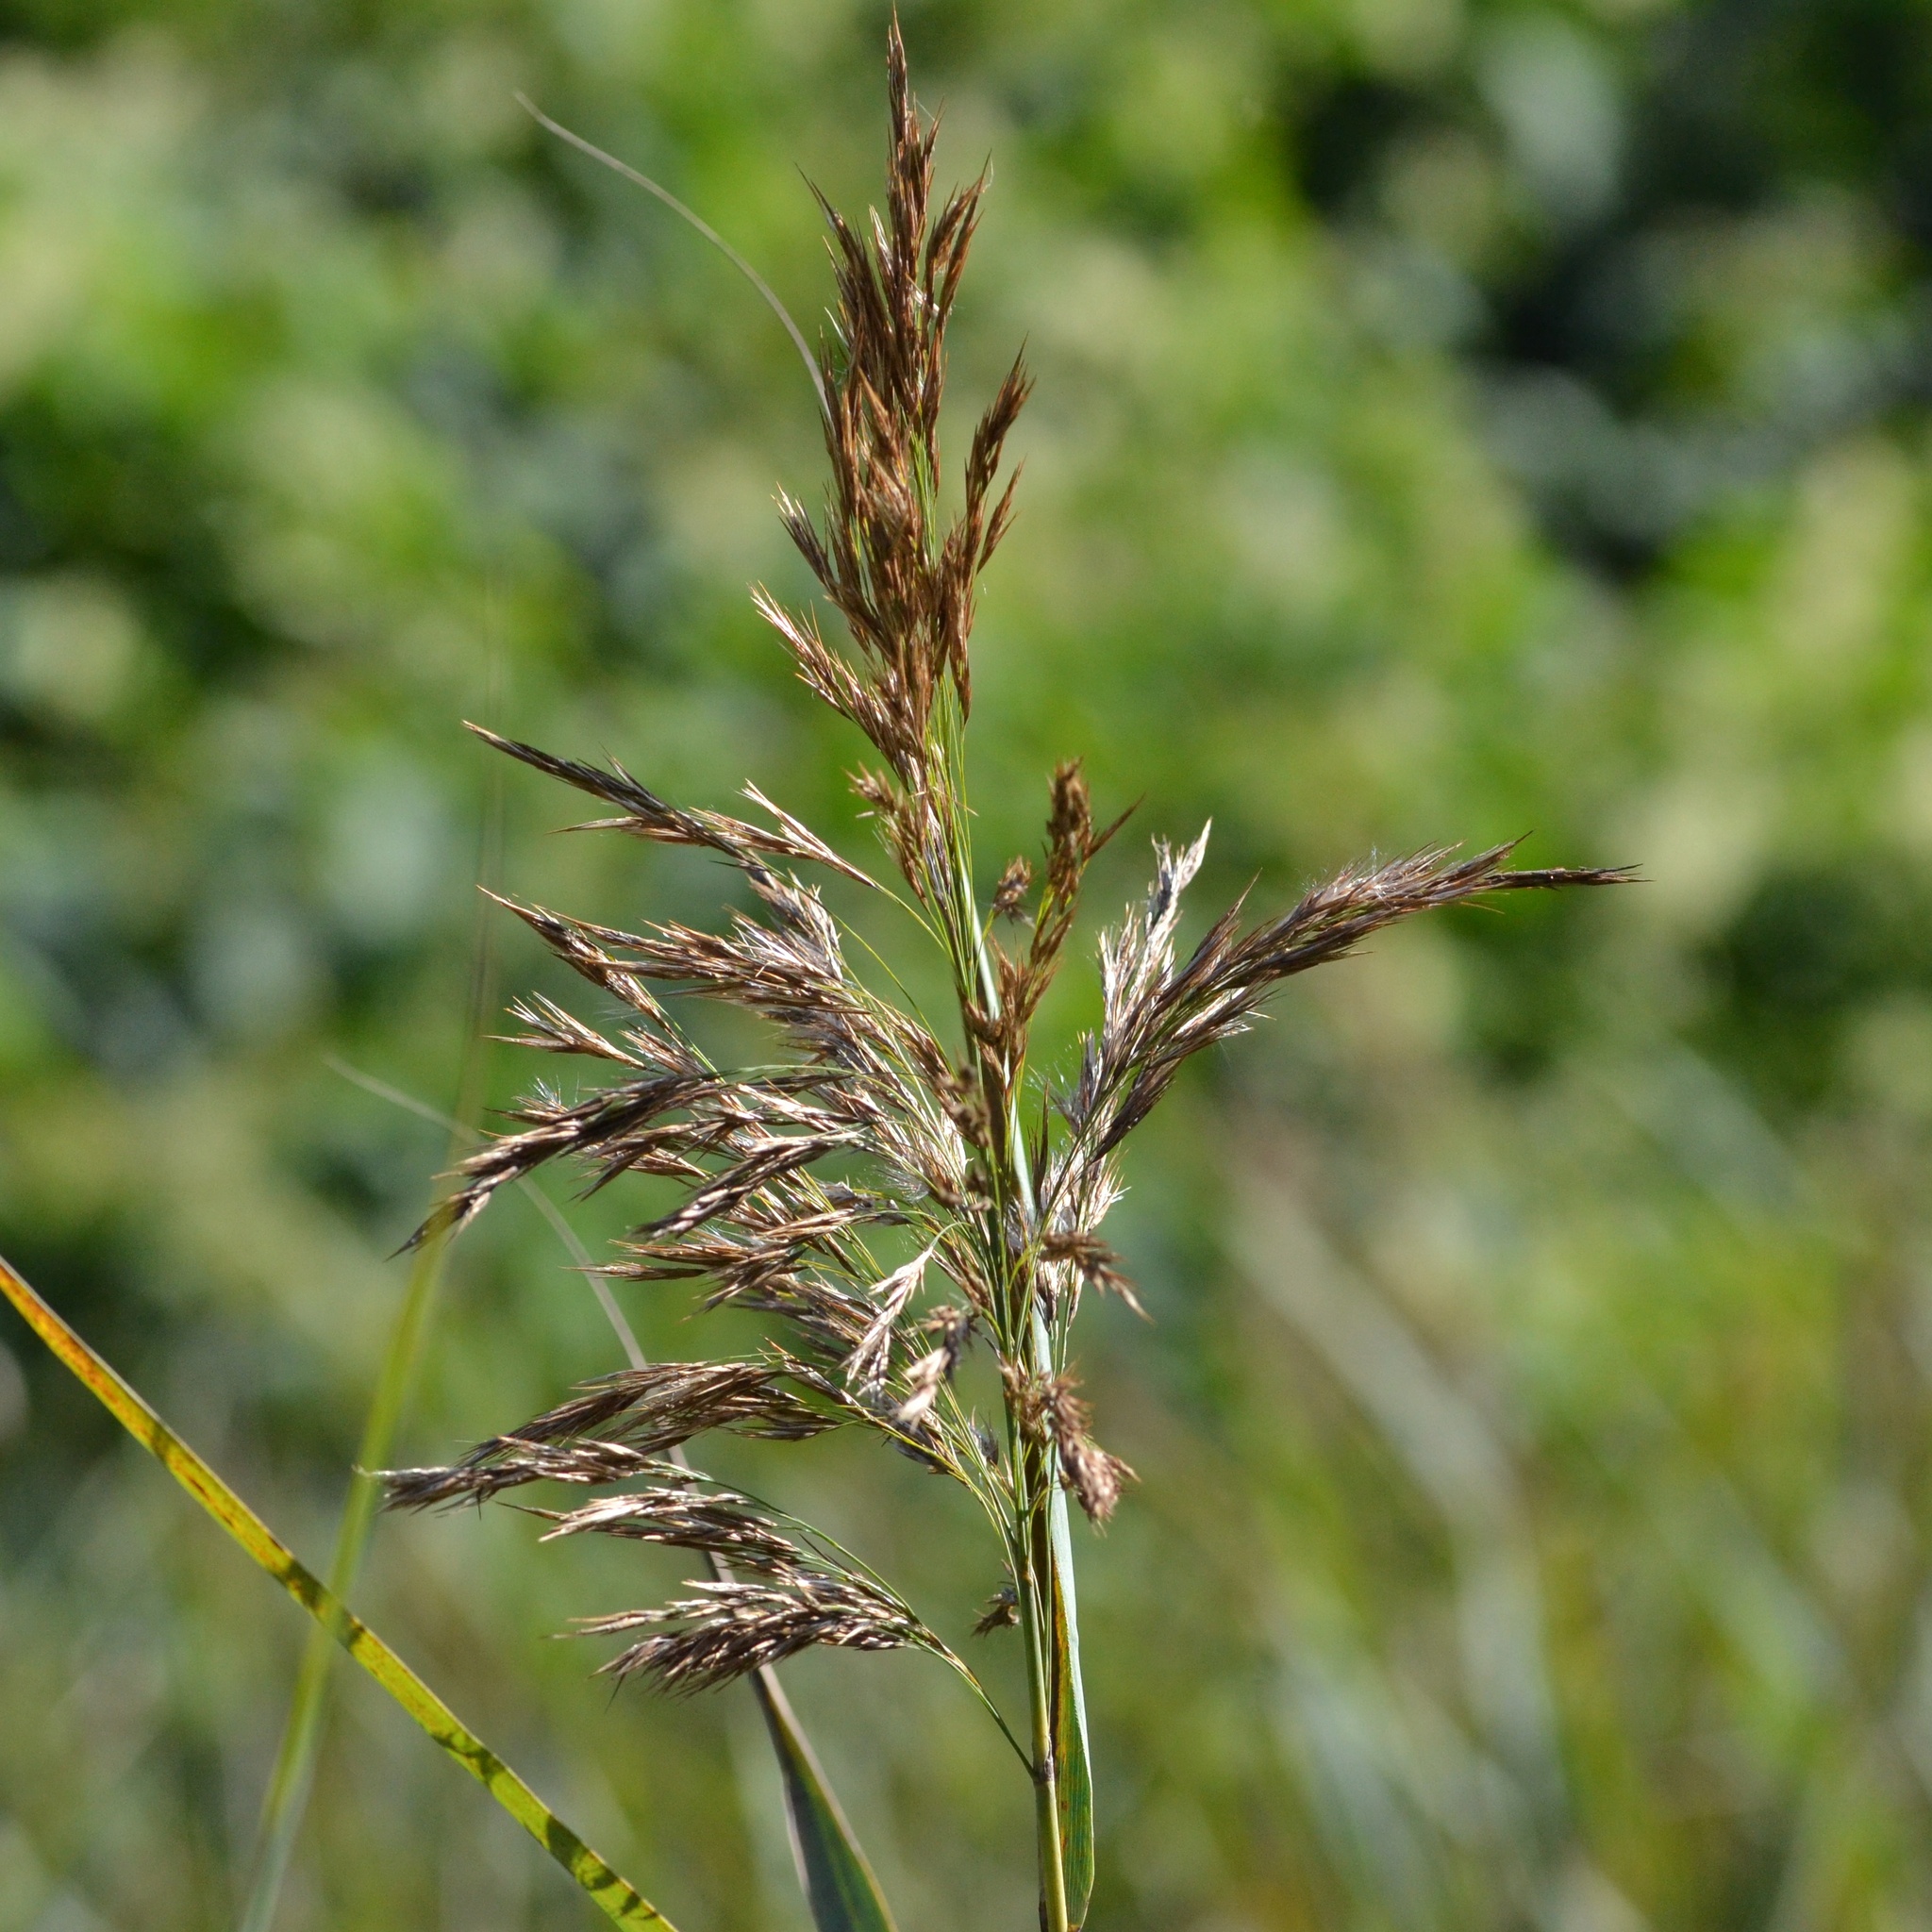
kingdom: Plantae
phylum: Tracheophyta
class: Liliopsida
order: Poales
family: Poaceae
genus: Phragmites
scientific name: Phragmites australis
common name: Common reed
